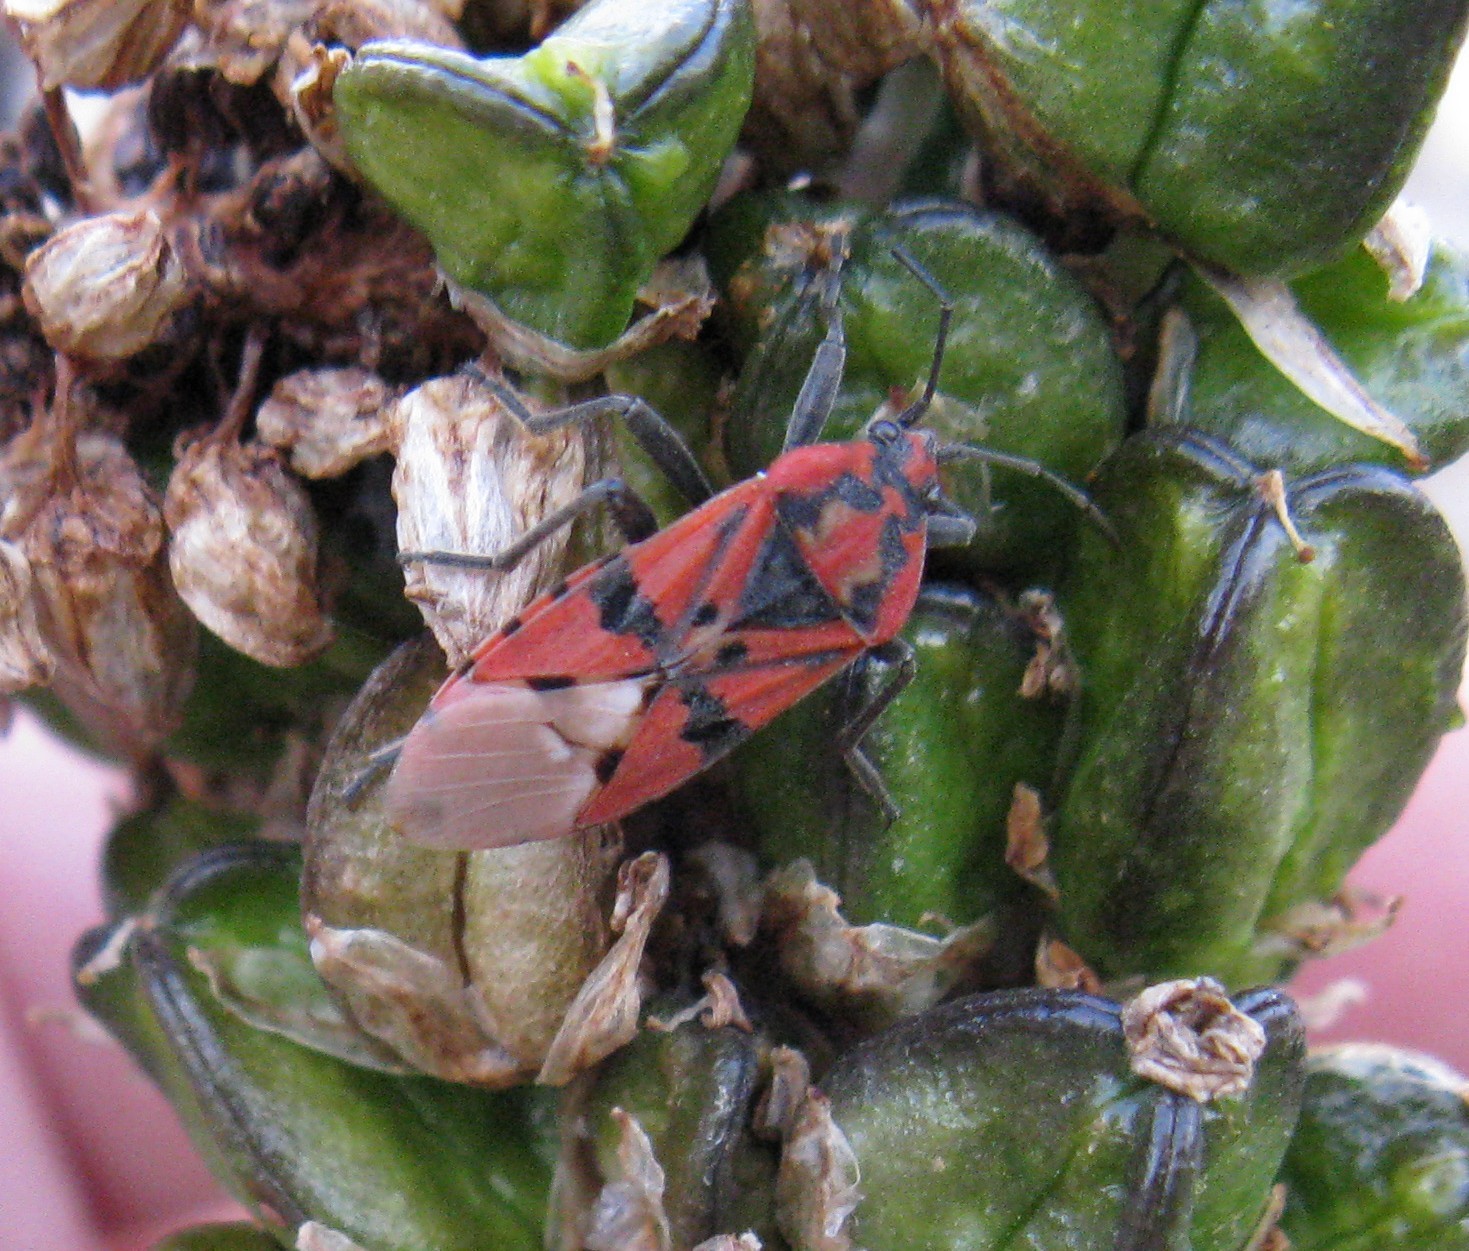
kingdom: Animalia
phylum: Arthropoda
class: Insecta
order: Hemiptera
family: Lygaeidae
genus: Spilostethus
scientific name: Spilostethus pandurus
